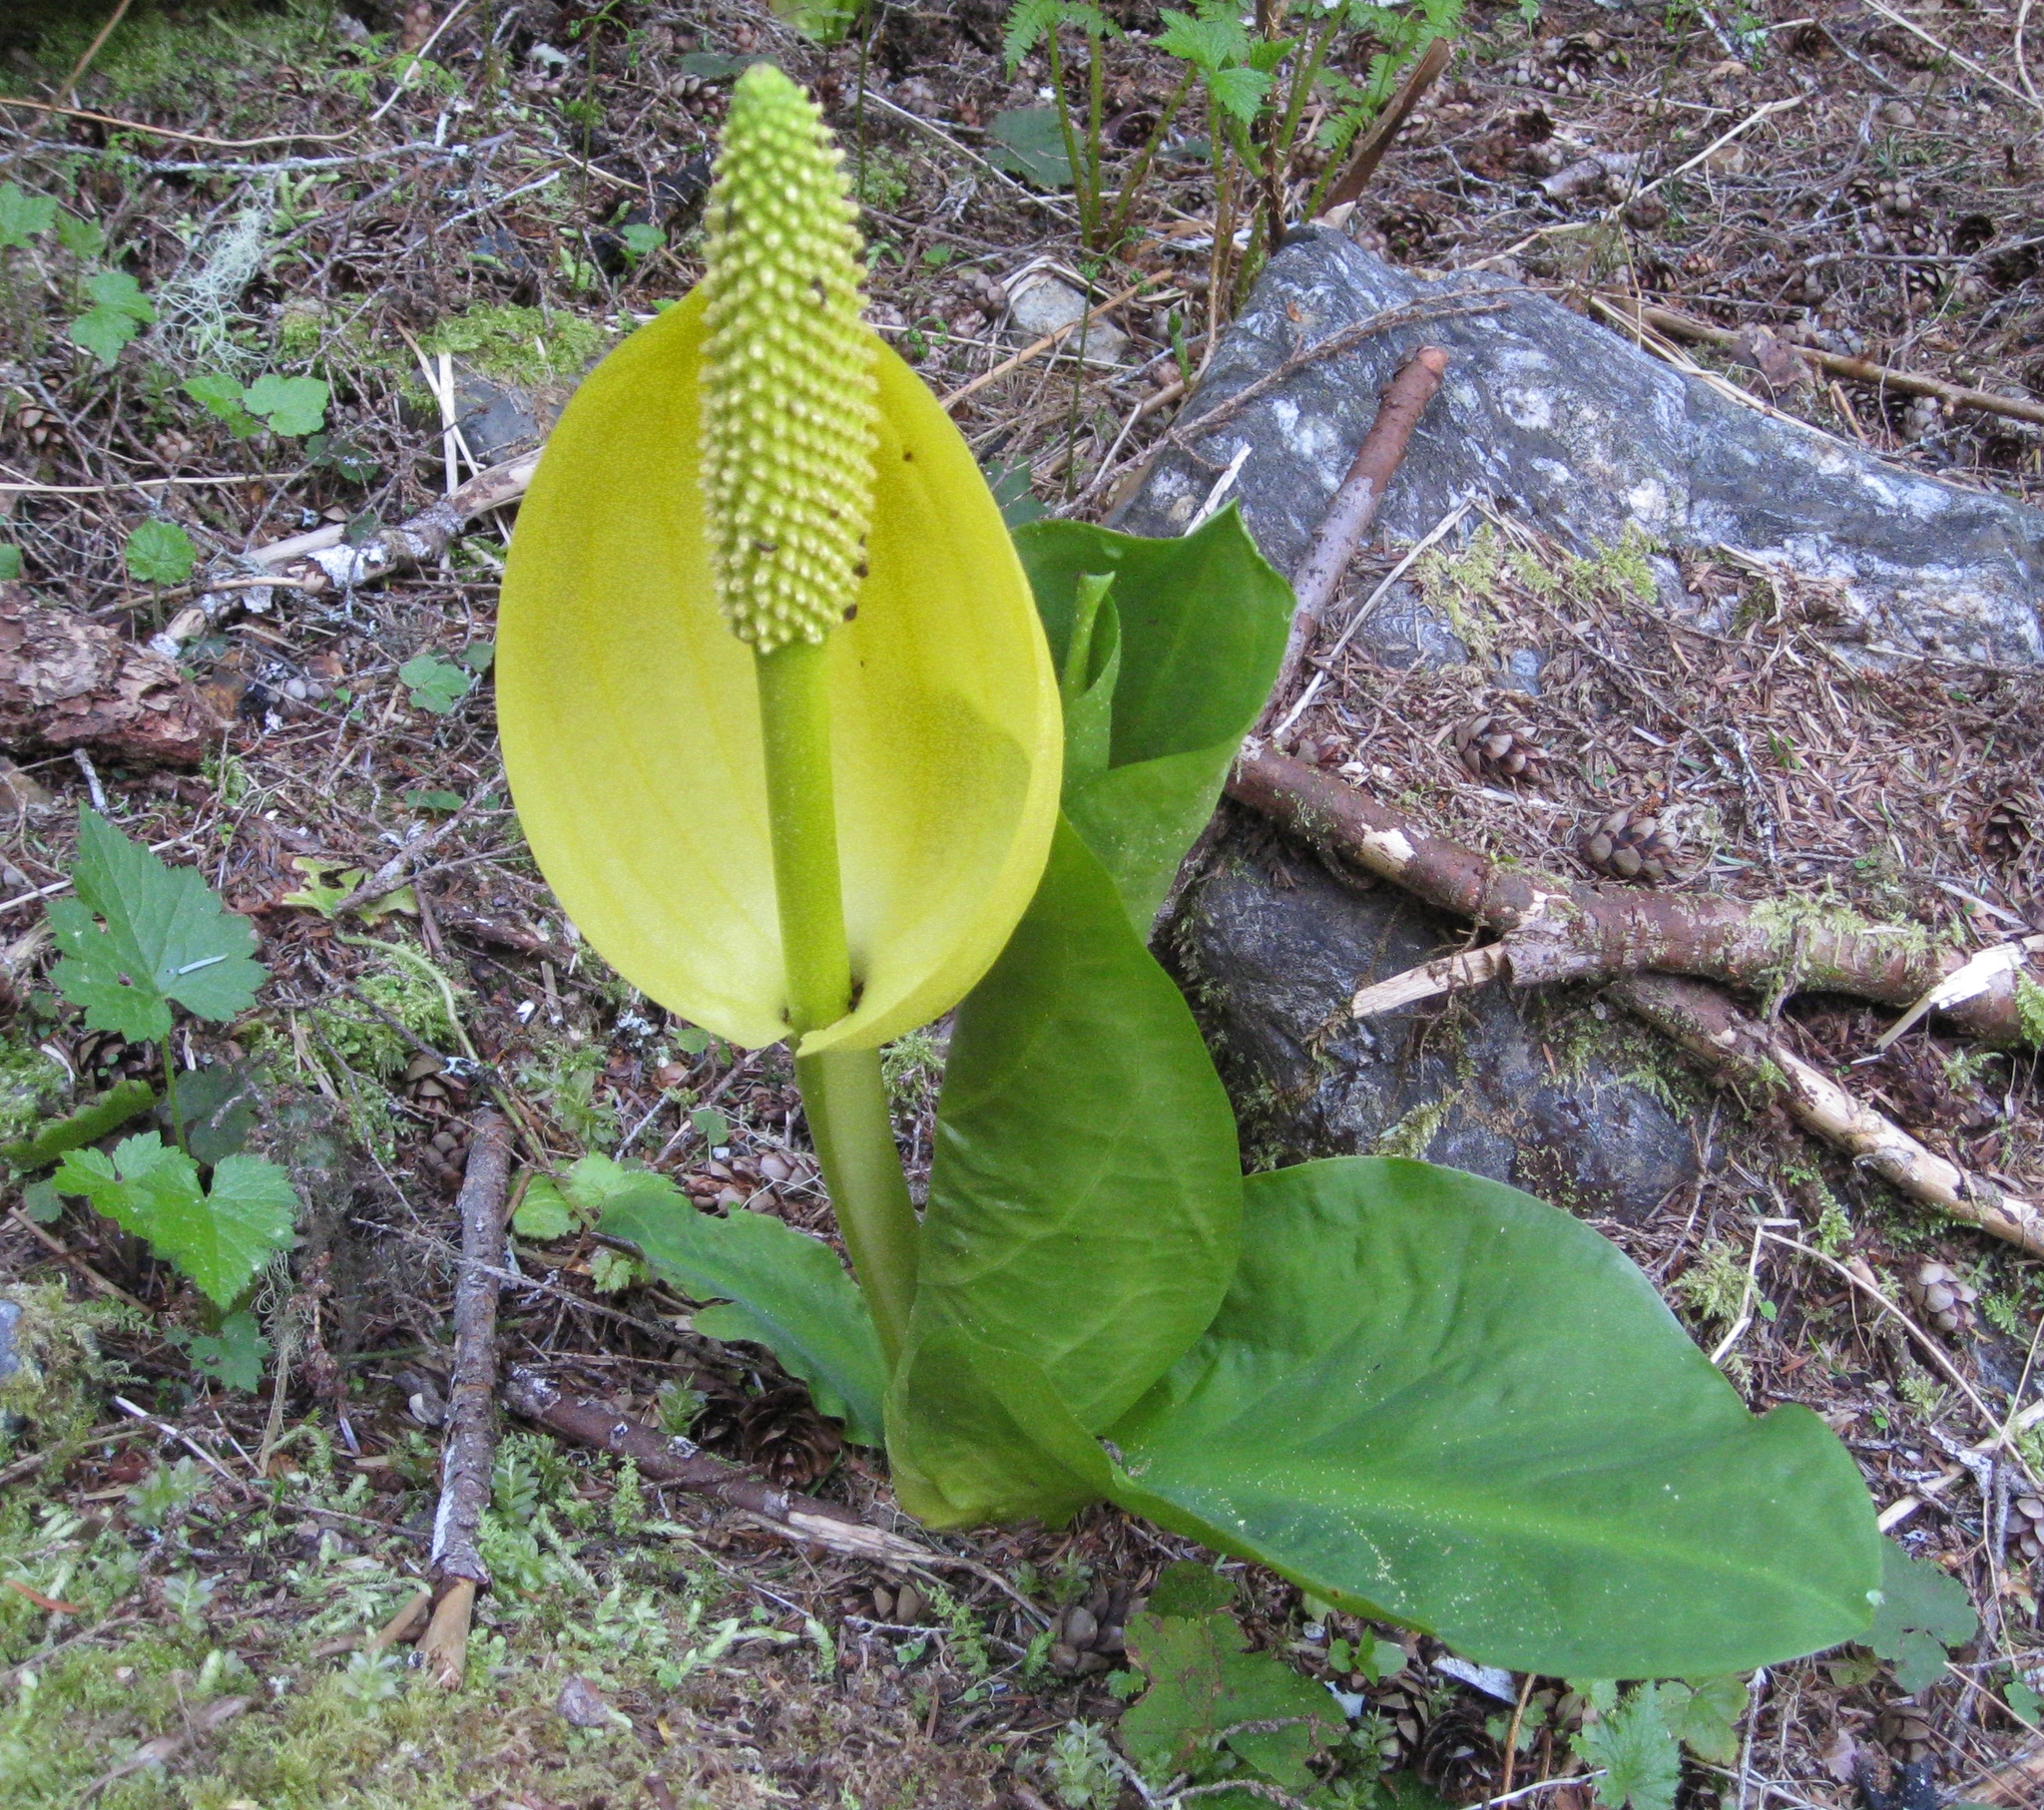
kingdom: Plantae
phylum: Tracheophyta
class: Liliopsida
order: Alismatales
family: Araceae
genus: Lysichiton
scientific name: Lysichiton americanus
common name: American skunk cabbage
